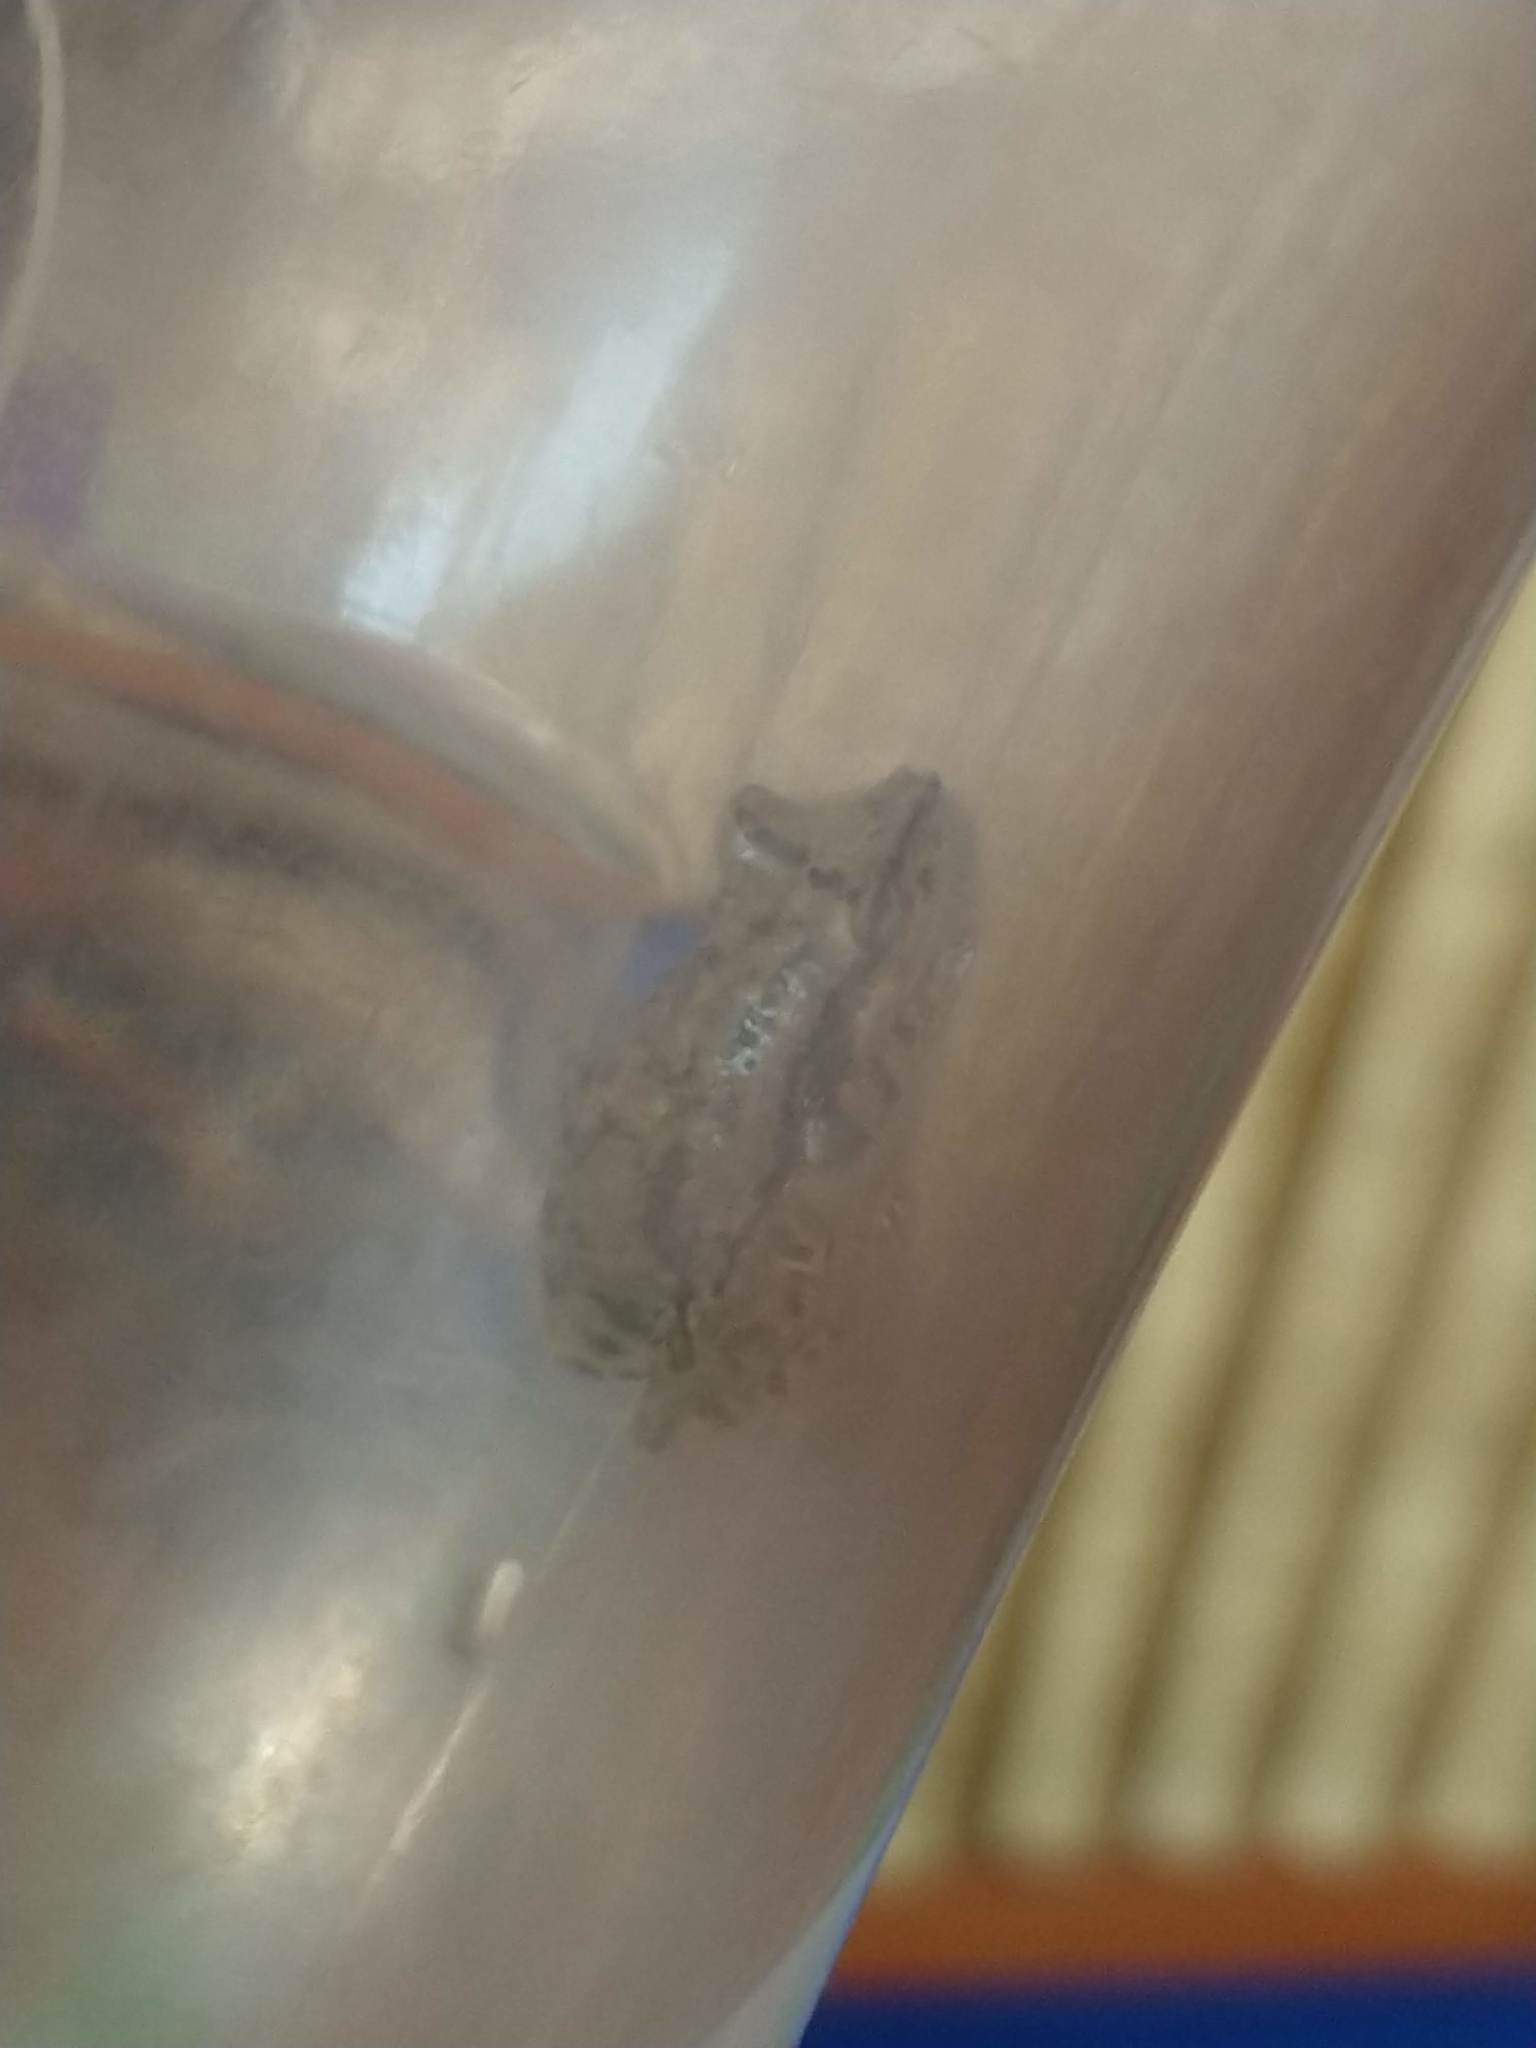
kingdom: Animalia
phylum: Chordata
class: Amphibia
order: Anura
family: Hylidae
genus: Scinax
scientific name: Scinax granulatus
